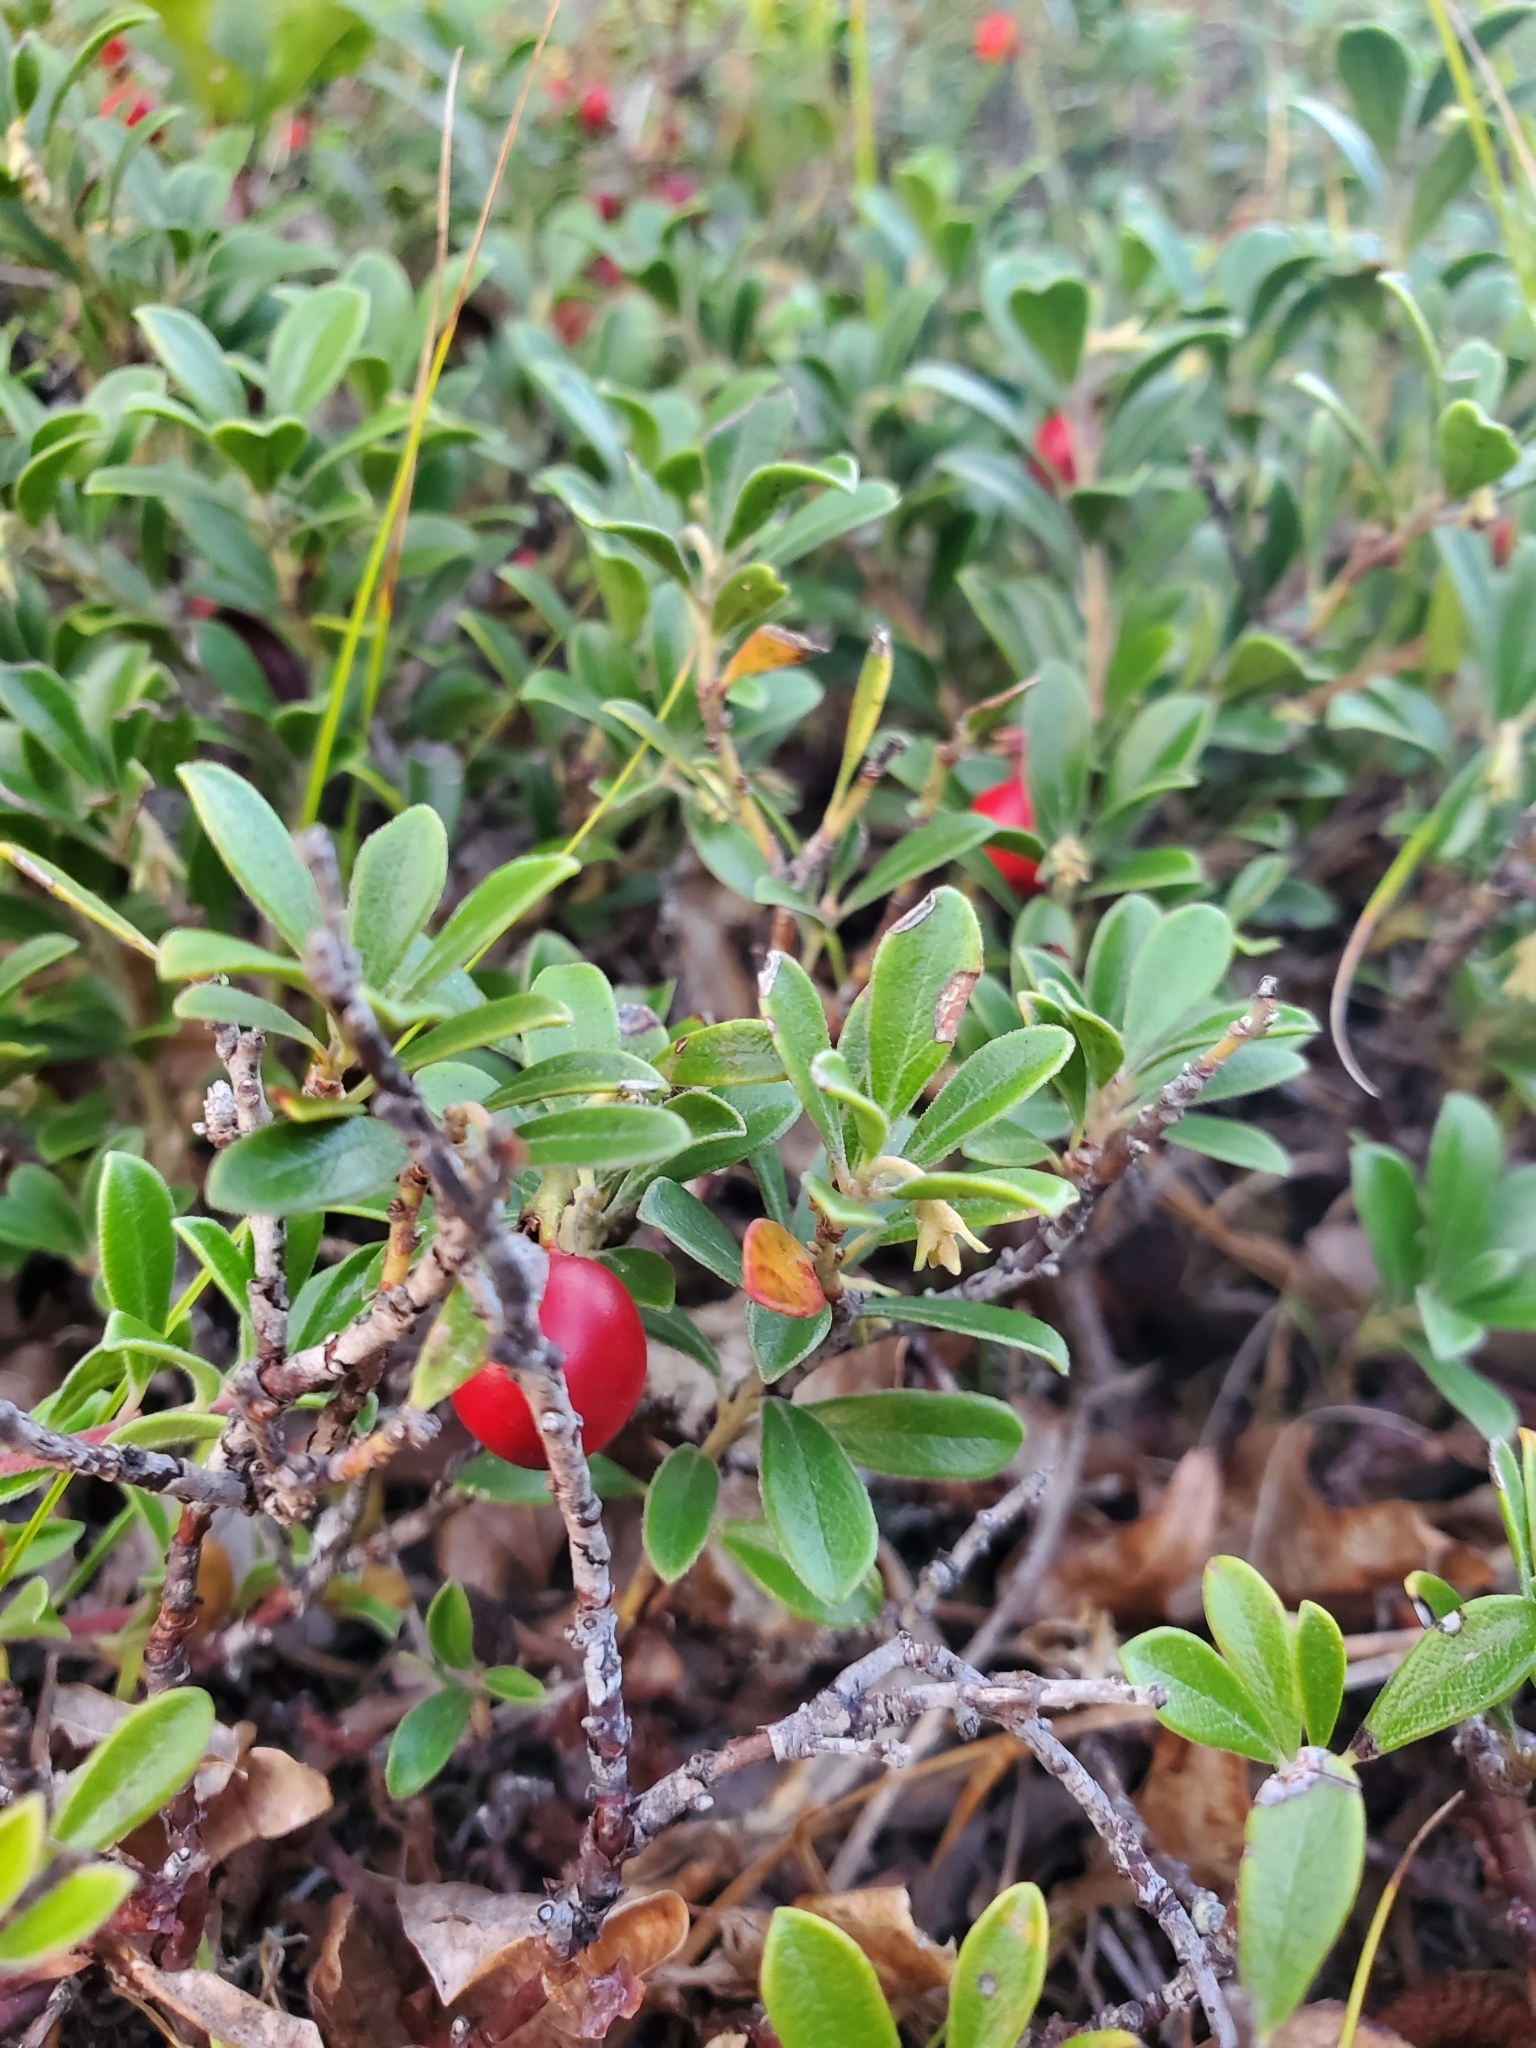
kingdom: Plantae
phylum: Tracheophyta
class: Magnoliopsida
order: Ericales
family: Ericaceae
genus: Arctostaphylos
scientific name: Arctostaphylos uva-ursi
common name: Bearberry
